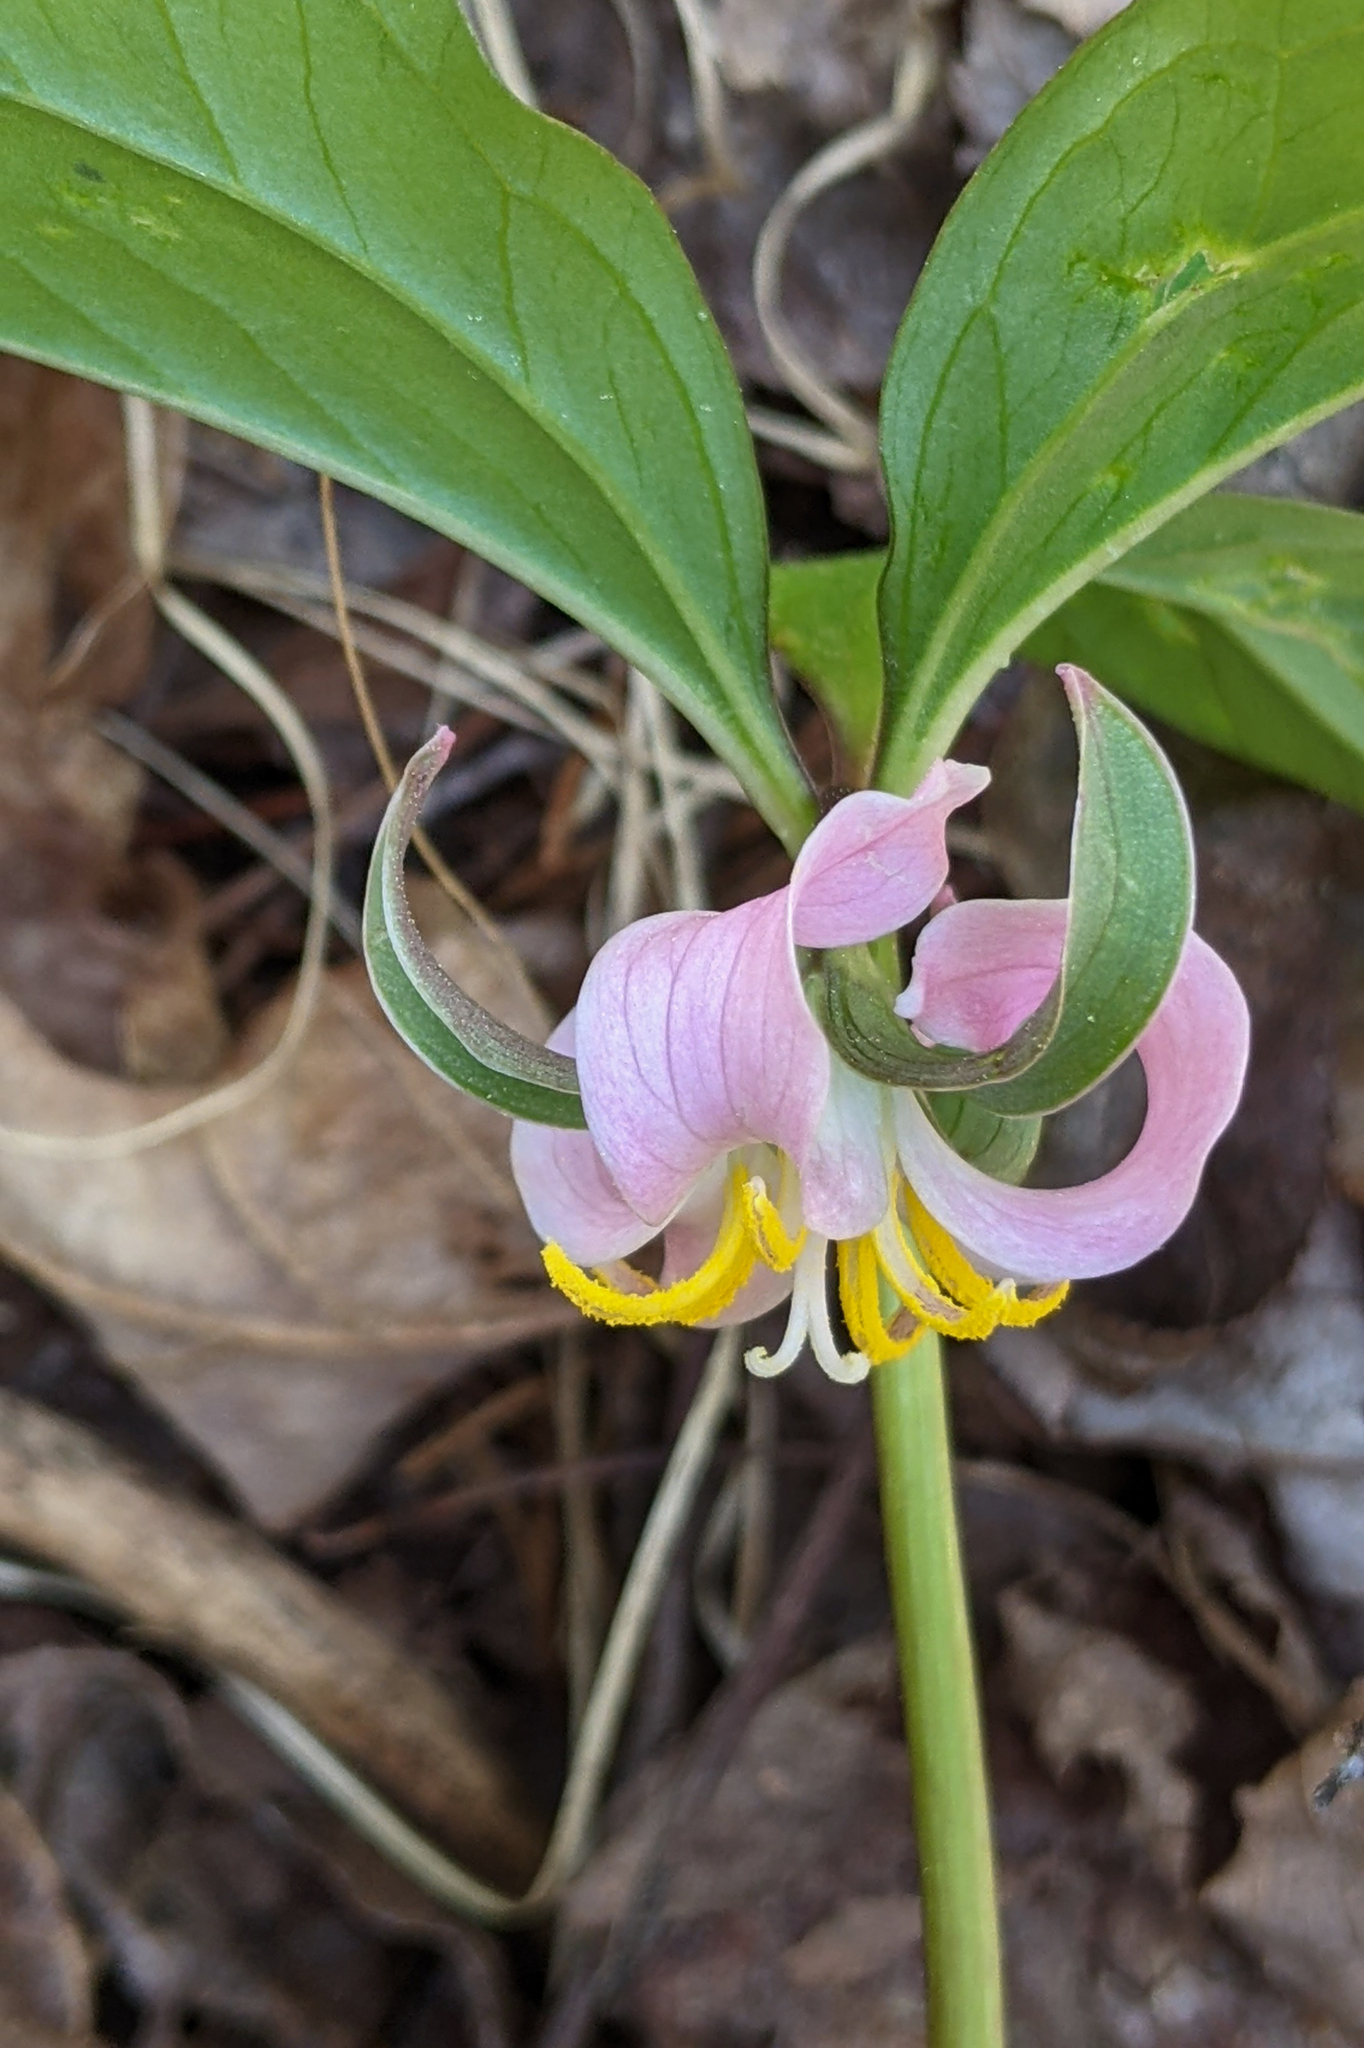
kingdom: Plantae
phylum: Tracheophyta
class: Liliopsida
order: Liliales
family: Melanthiaceae
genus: Trillium
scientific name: Trillium catesbaei
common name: Bashful trillium
